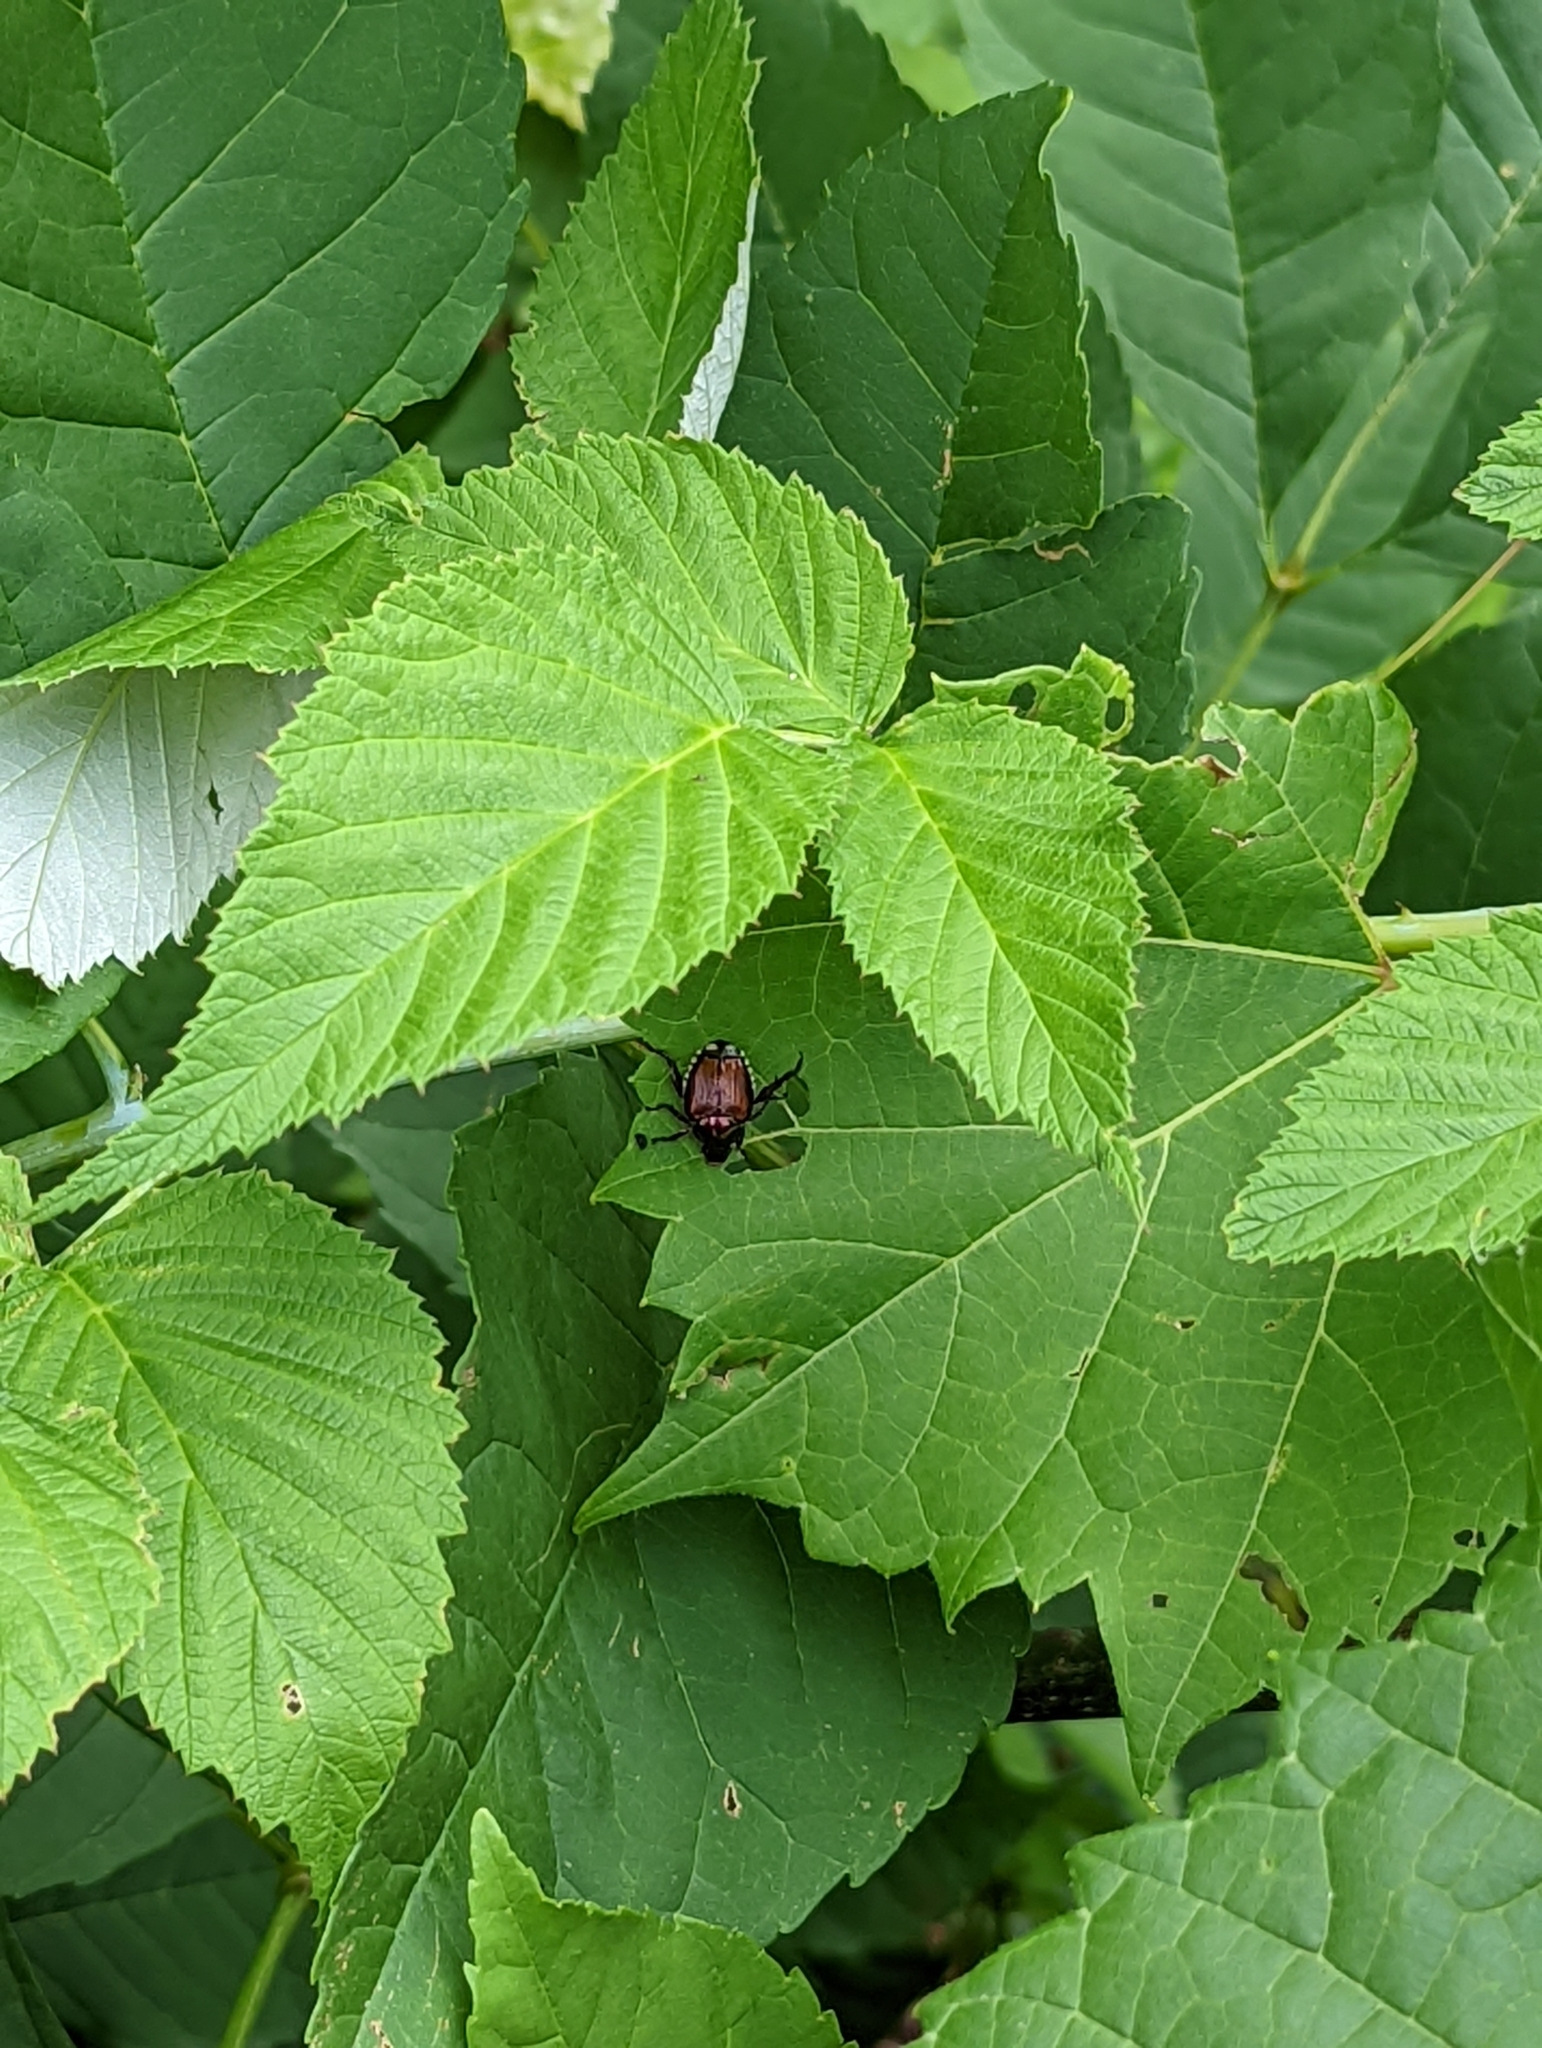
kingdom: Animalia
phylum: Arthropoda
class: Insecta
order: Coleoptera
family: Scarabaeidae
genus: Popillia
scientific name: Popillia japonica
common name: Japanese beetle
